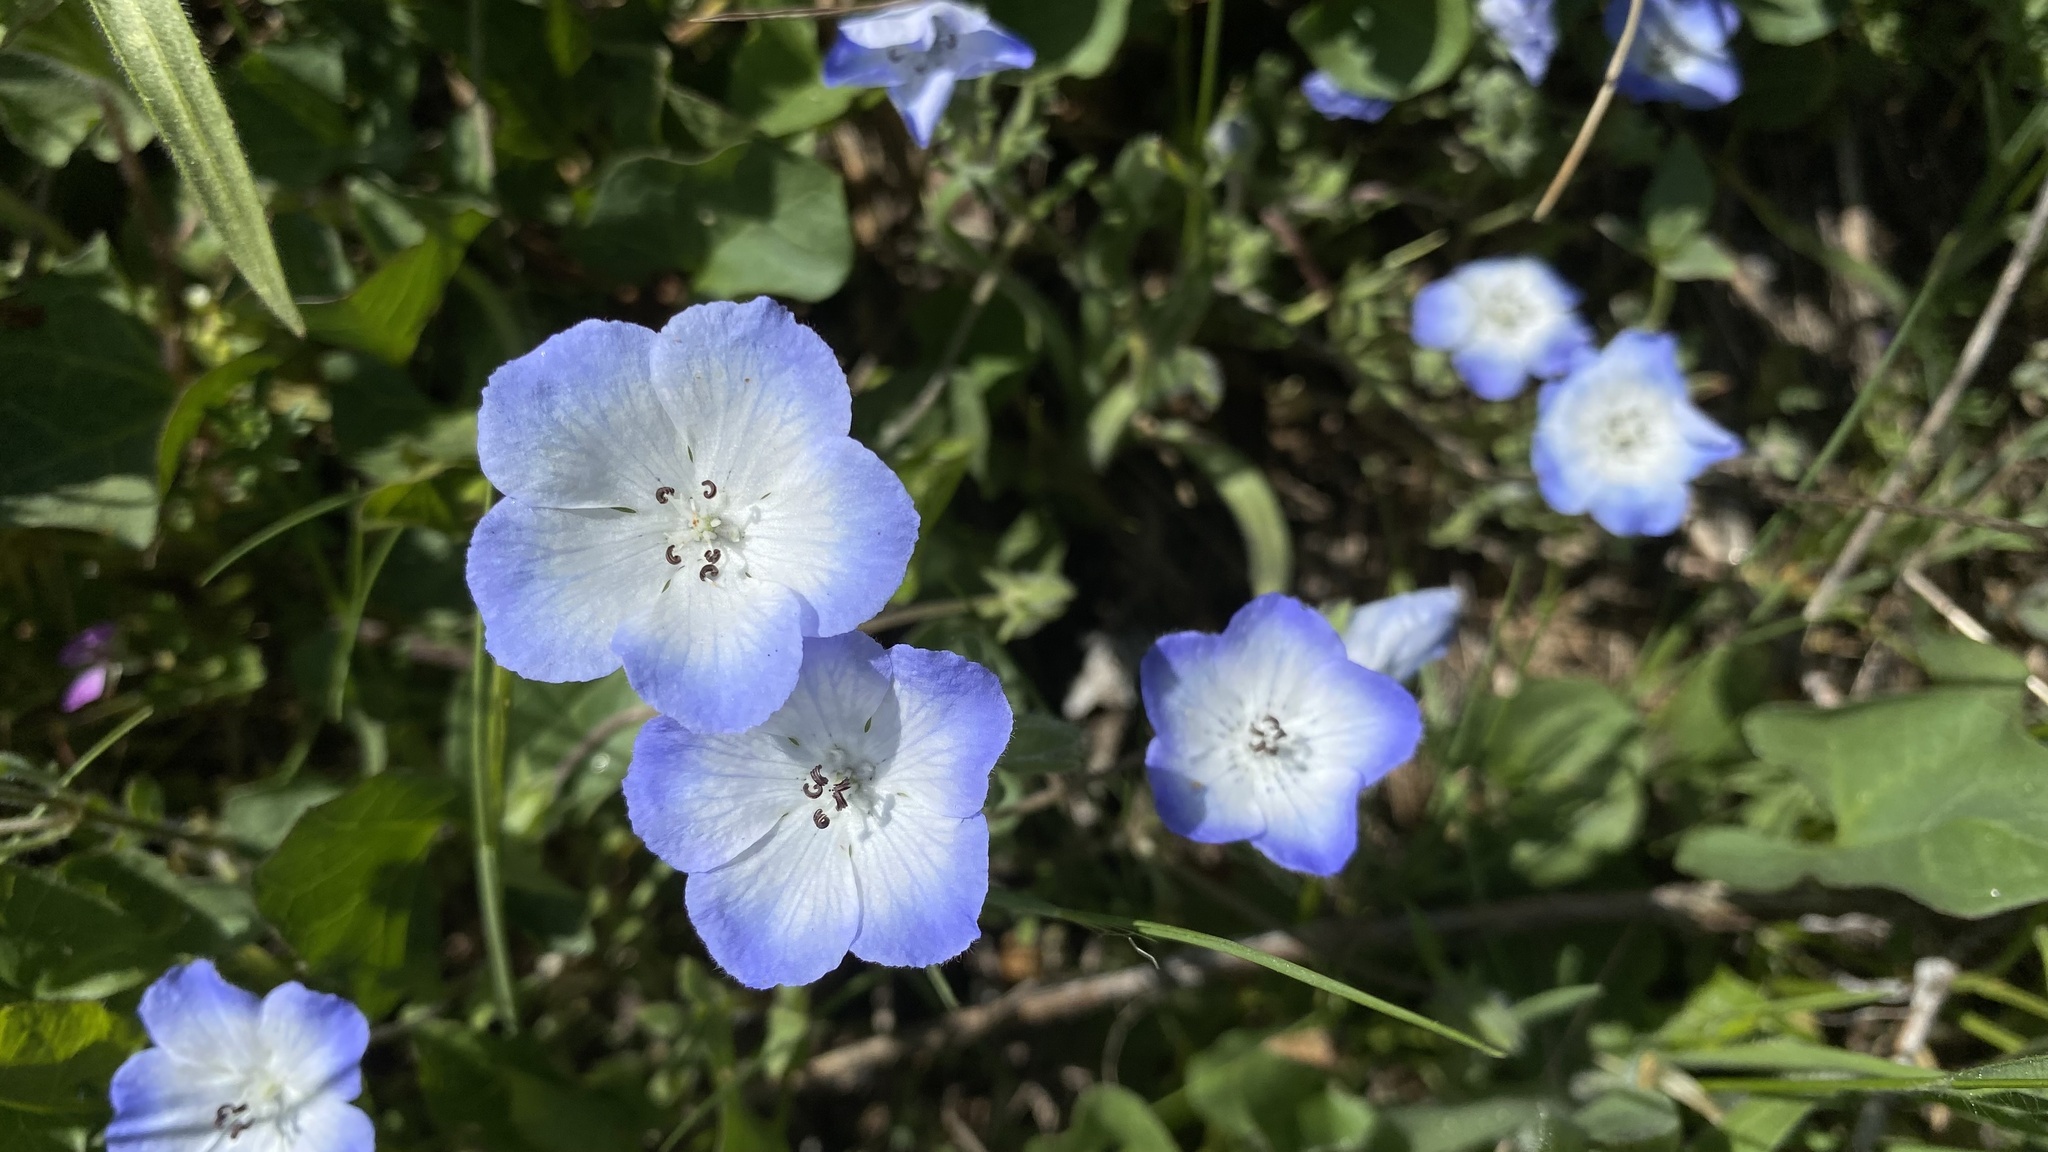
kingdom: Plantae
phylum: Tracheophyta
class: Magnoliopsida
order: Boraginales
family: Hydrophyllaceae
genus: Nemophila
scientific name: Nemophila menziesii
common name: Baby's-blue-eyes
